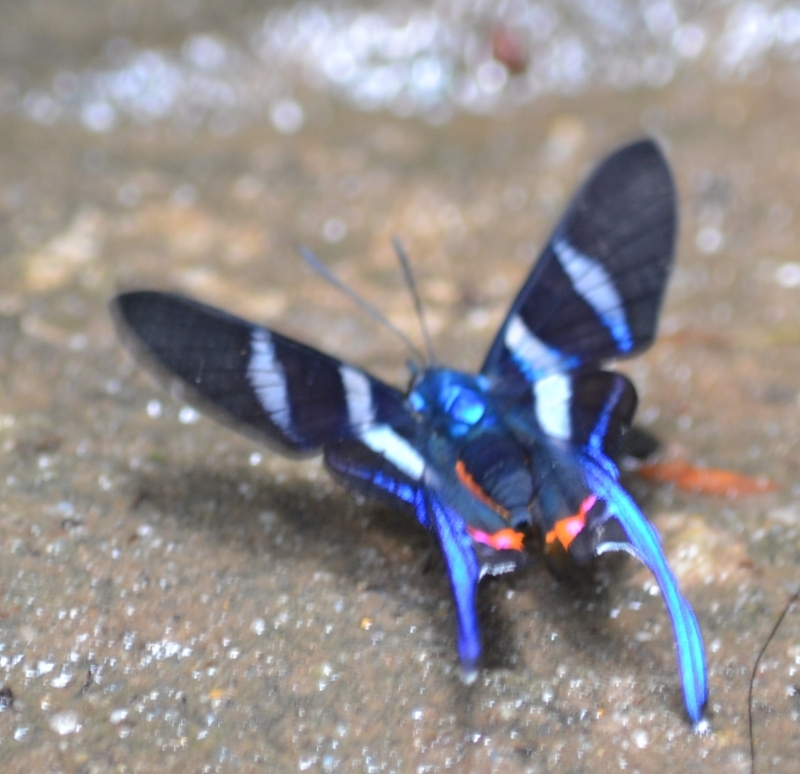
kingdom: Animalia
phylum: Arthropoda
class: Insecta
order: Lepidoptera
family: Riodinidae
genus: Rhetus
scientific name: Rhetus arcius
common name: Long-tailed metalmark
